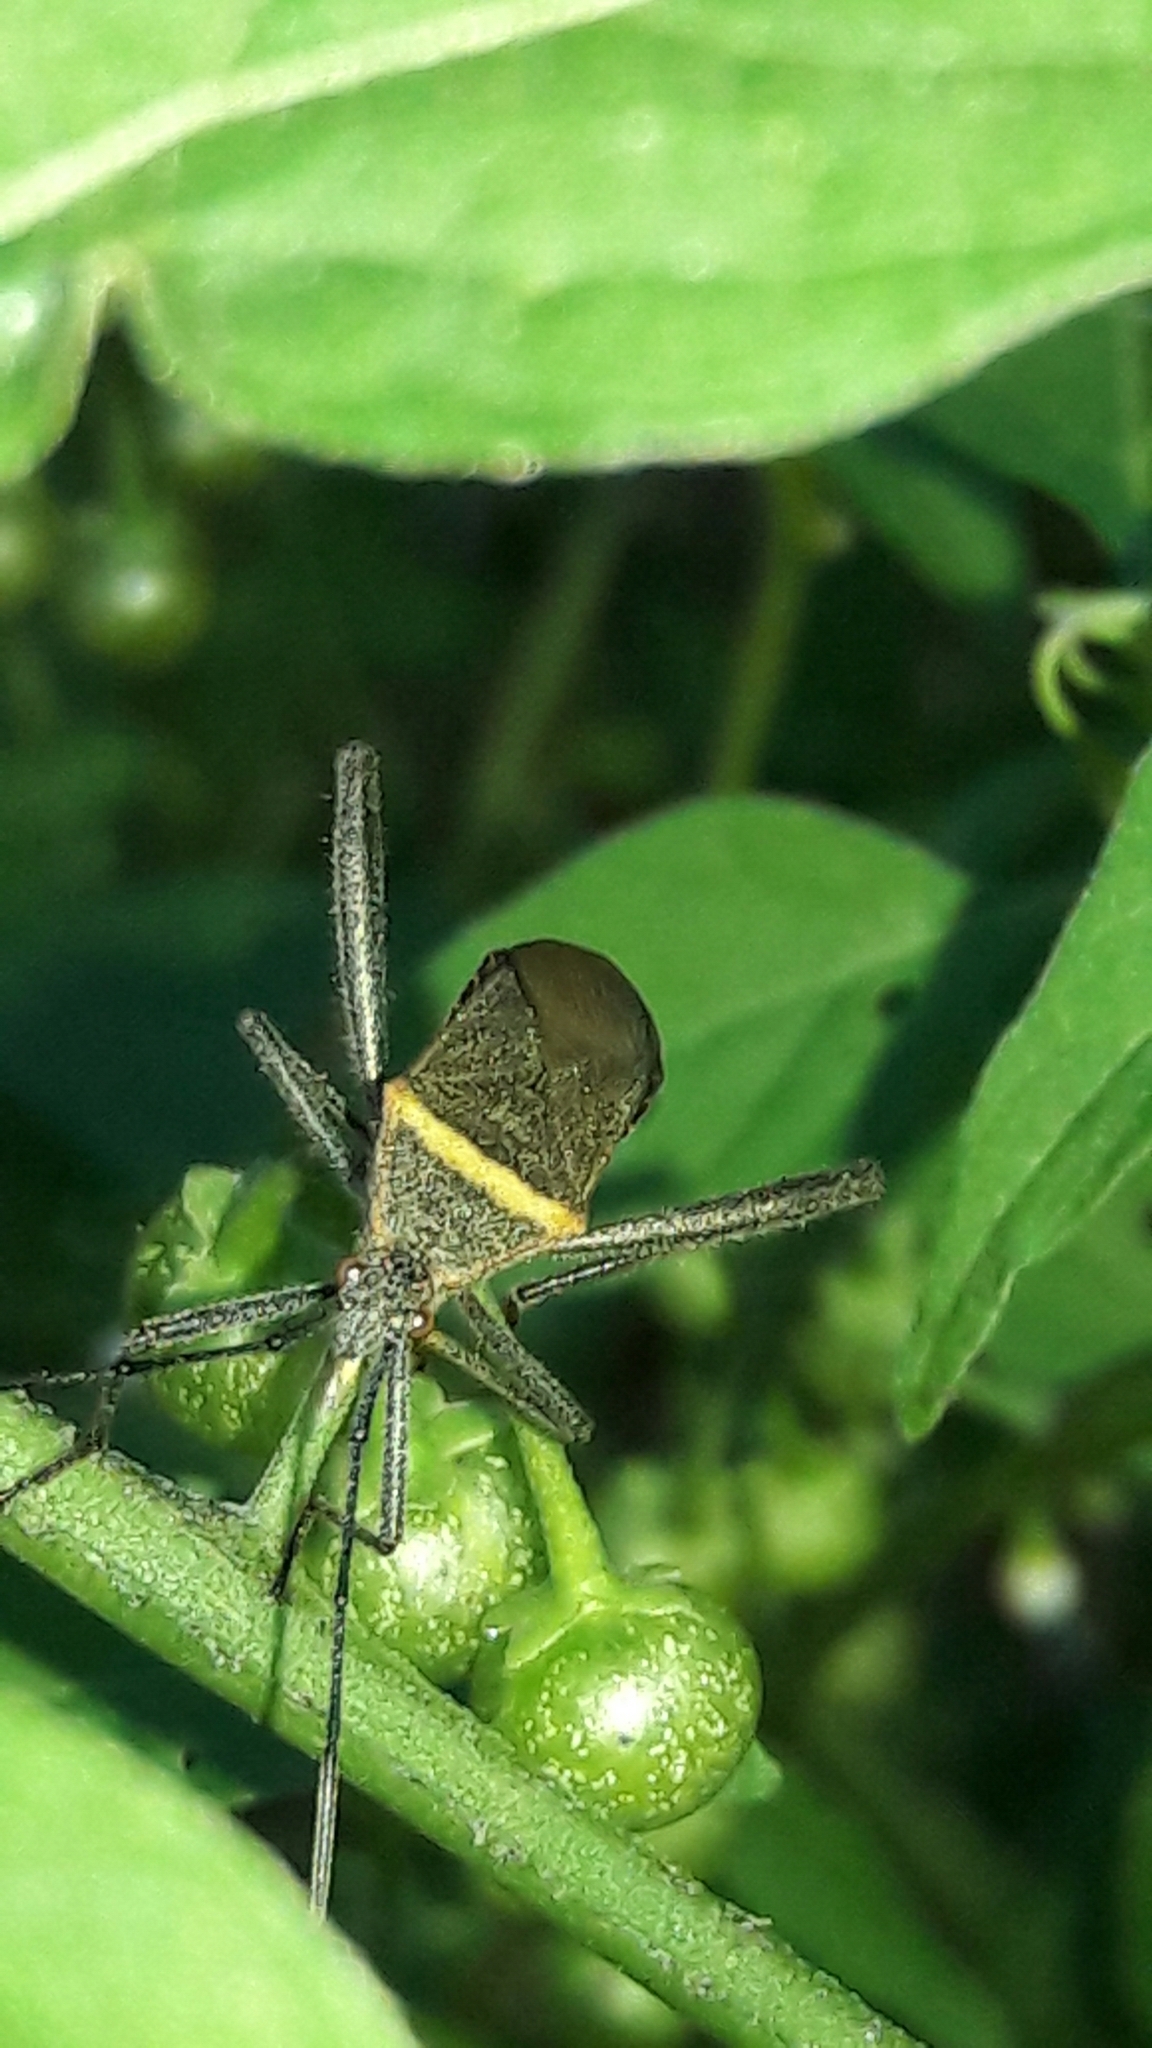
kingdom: Animalia
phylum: Arthropoda
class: Insecta
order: Hemiptera
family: Coreidae
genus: Phthiacnemia
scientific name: Phthiacnemia picta
